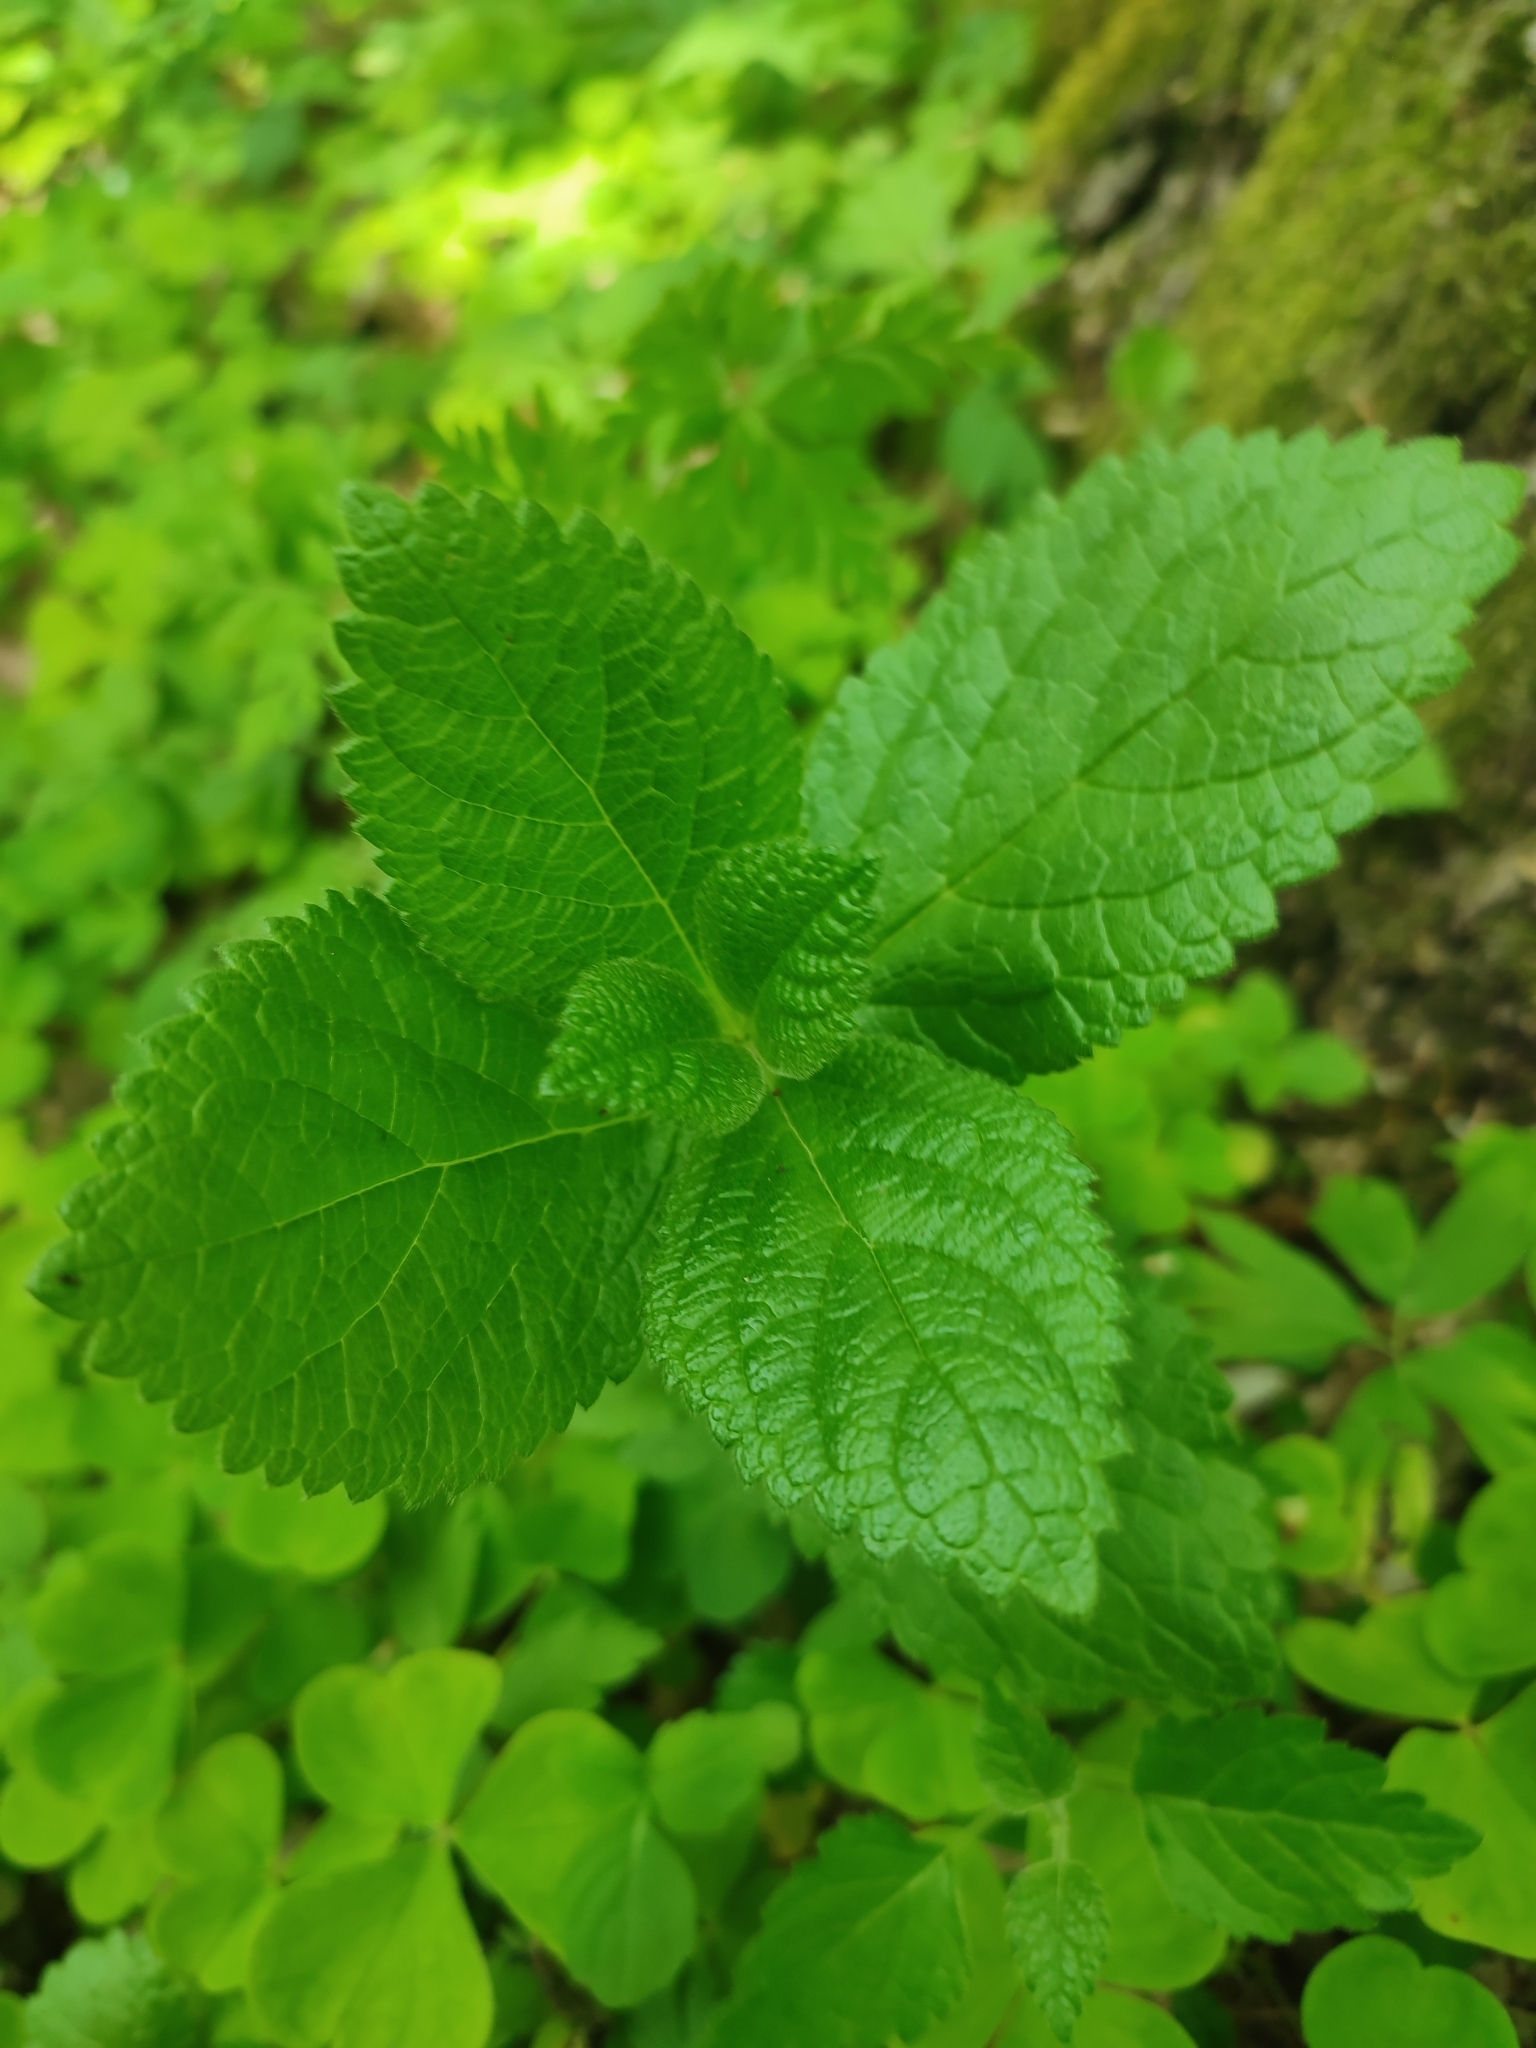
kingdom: Plantae
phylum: Tracheophyta
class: Magnoliopsida
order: Lamiales
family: Lamiaceae
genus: Melittis
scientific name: Melittis melissophyllum
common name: Bastard balm
